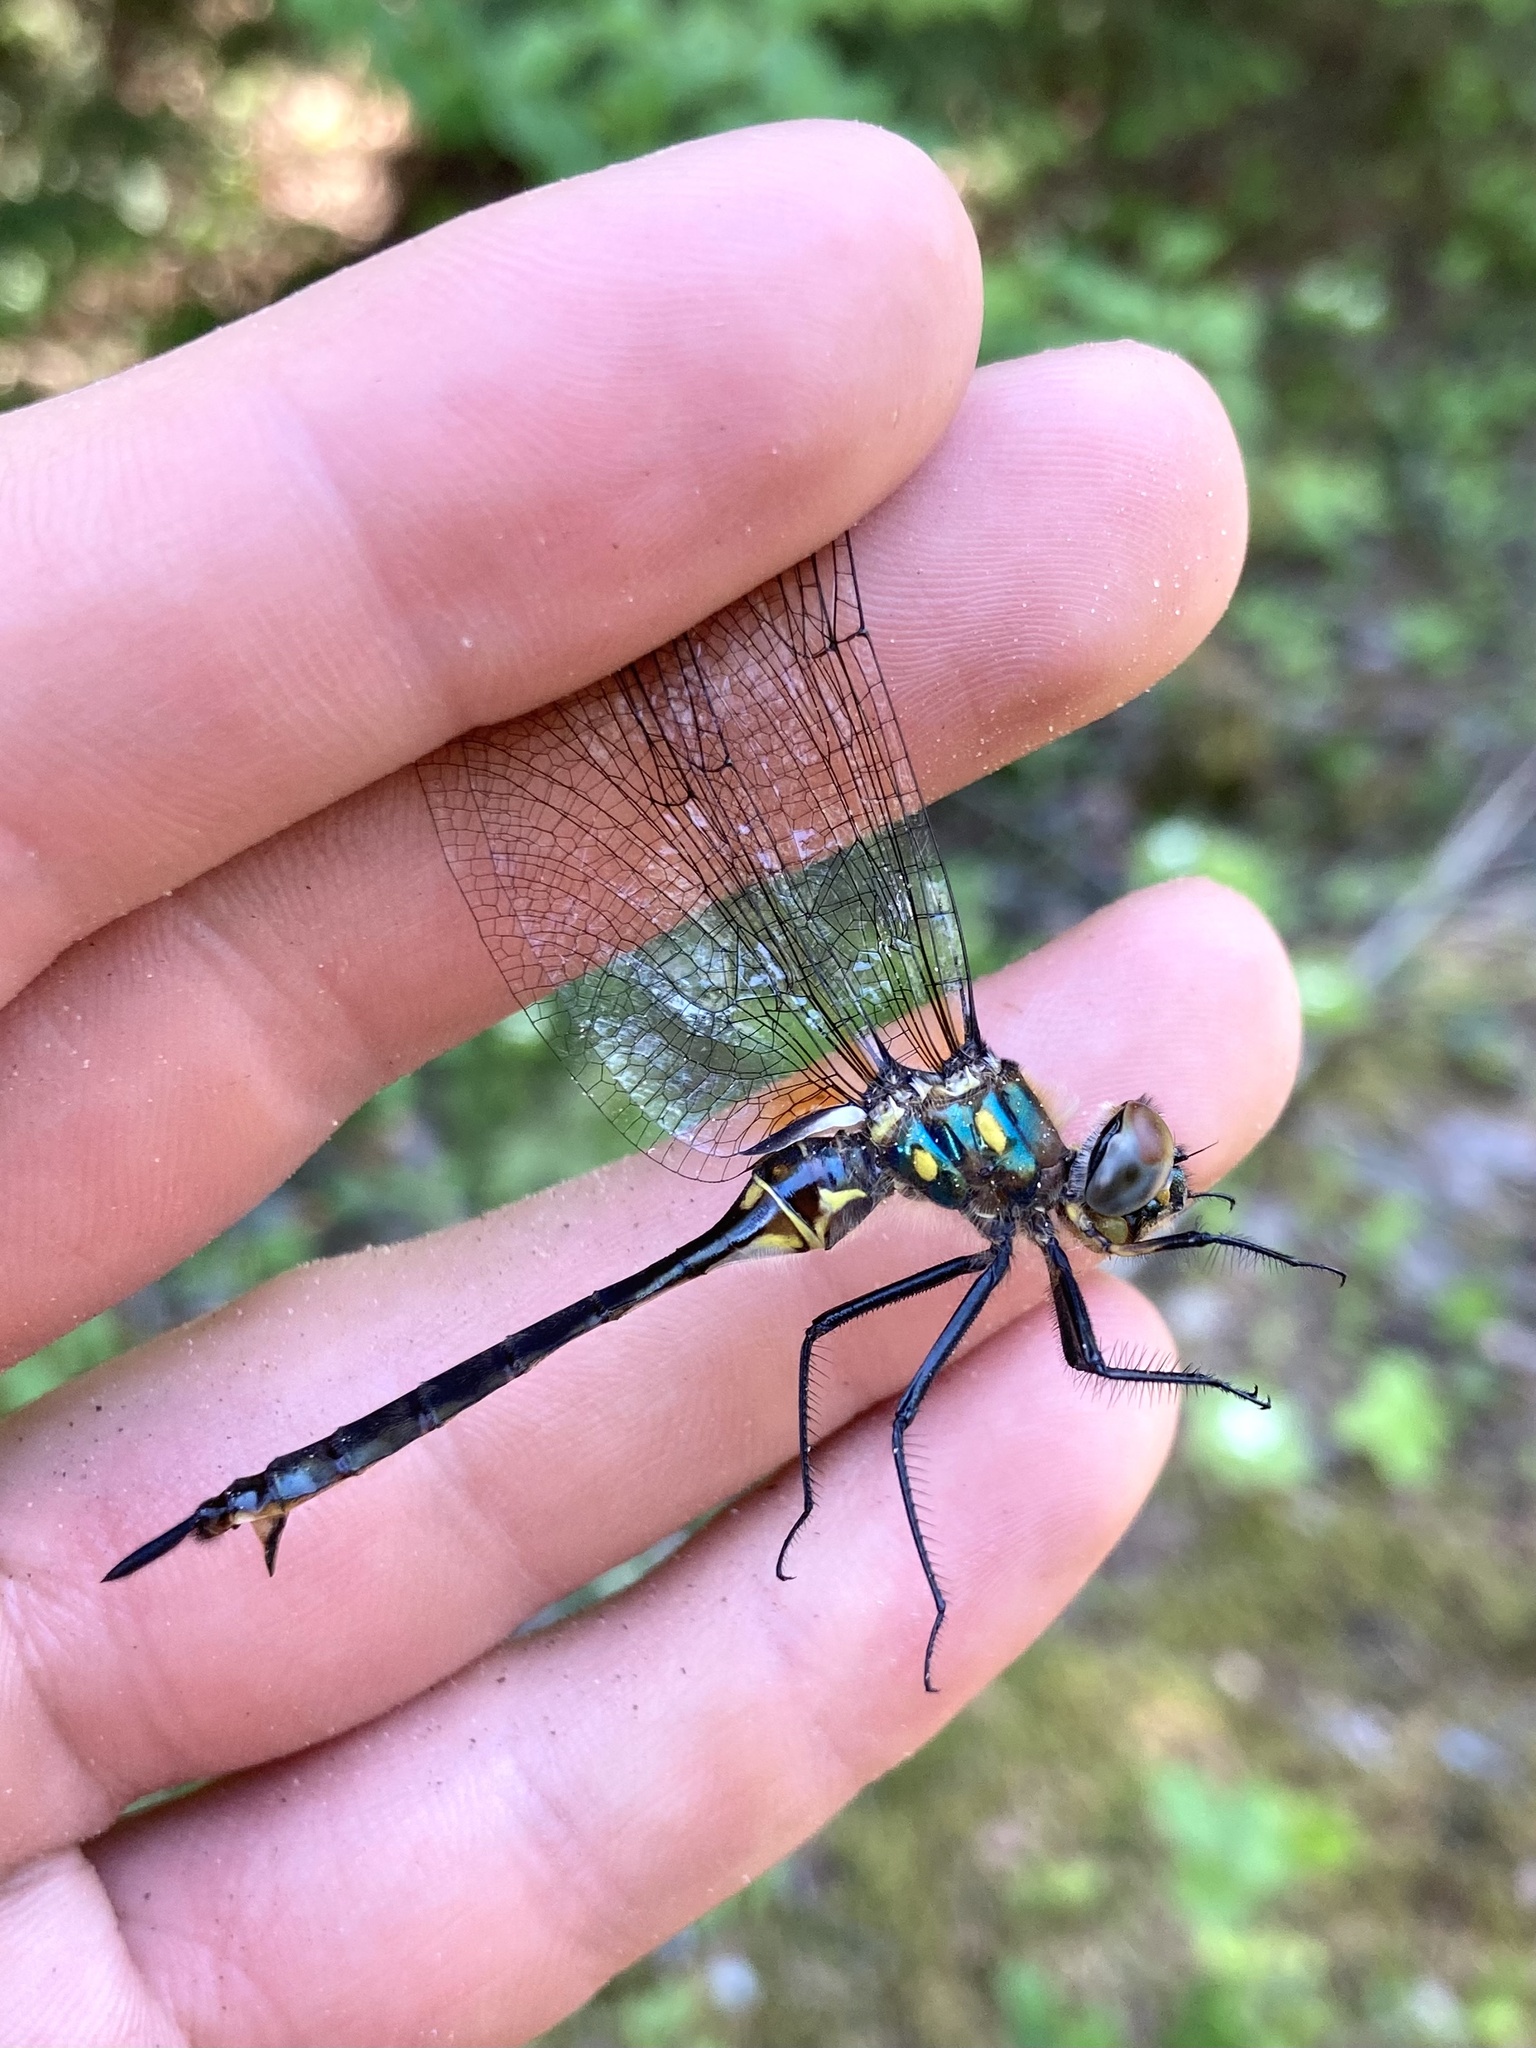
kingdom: Animalia
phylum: Arthropoda
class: Insecta
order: Odonata
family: Corduliidae
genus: Somatochlora
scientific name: Somatochlora minor
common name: Ocellated emerald
